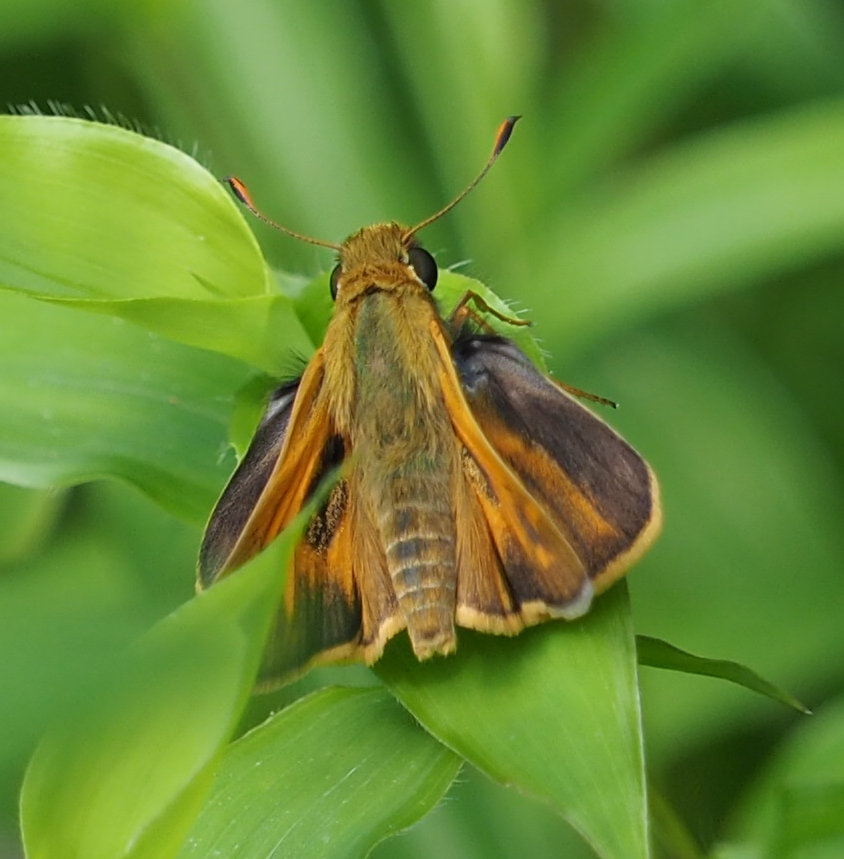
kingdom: Animalia
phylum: Arthropoda
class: Insecta
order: Lepidoptera
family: Hesperiidae
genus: Atalopedes
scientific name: Atalopedes
